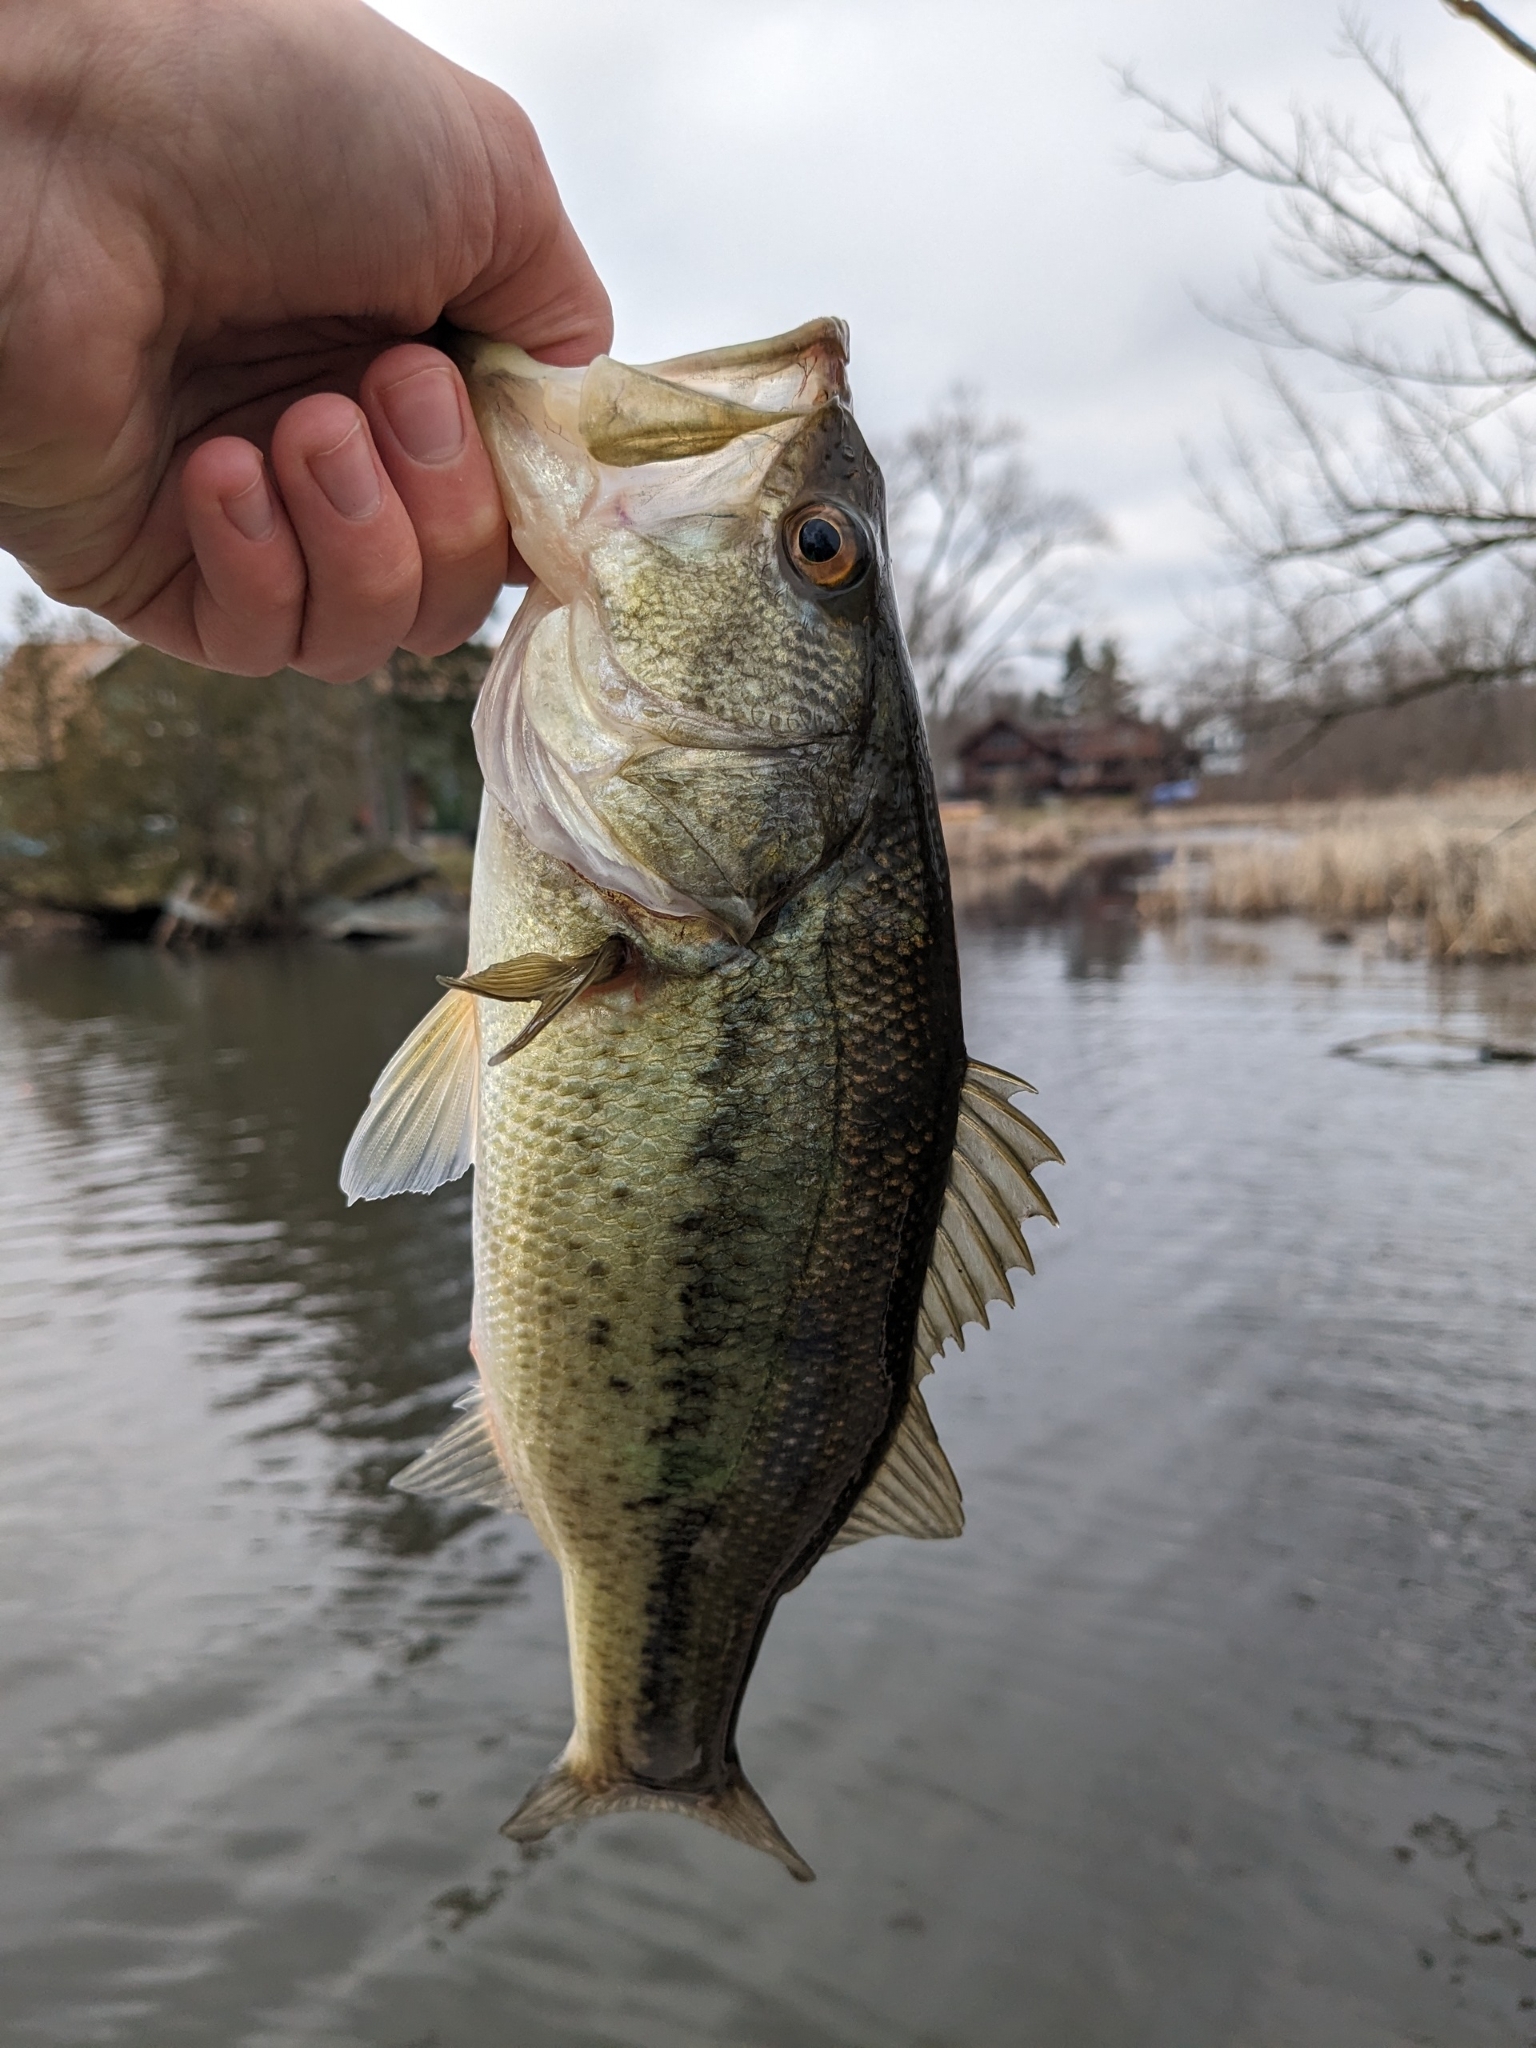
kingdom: Animalia
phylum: Chordata
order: Perciformes
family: Centrarchidae
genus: Micropterus
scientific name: Micropterus
